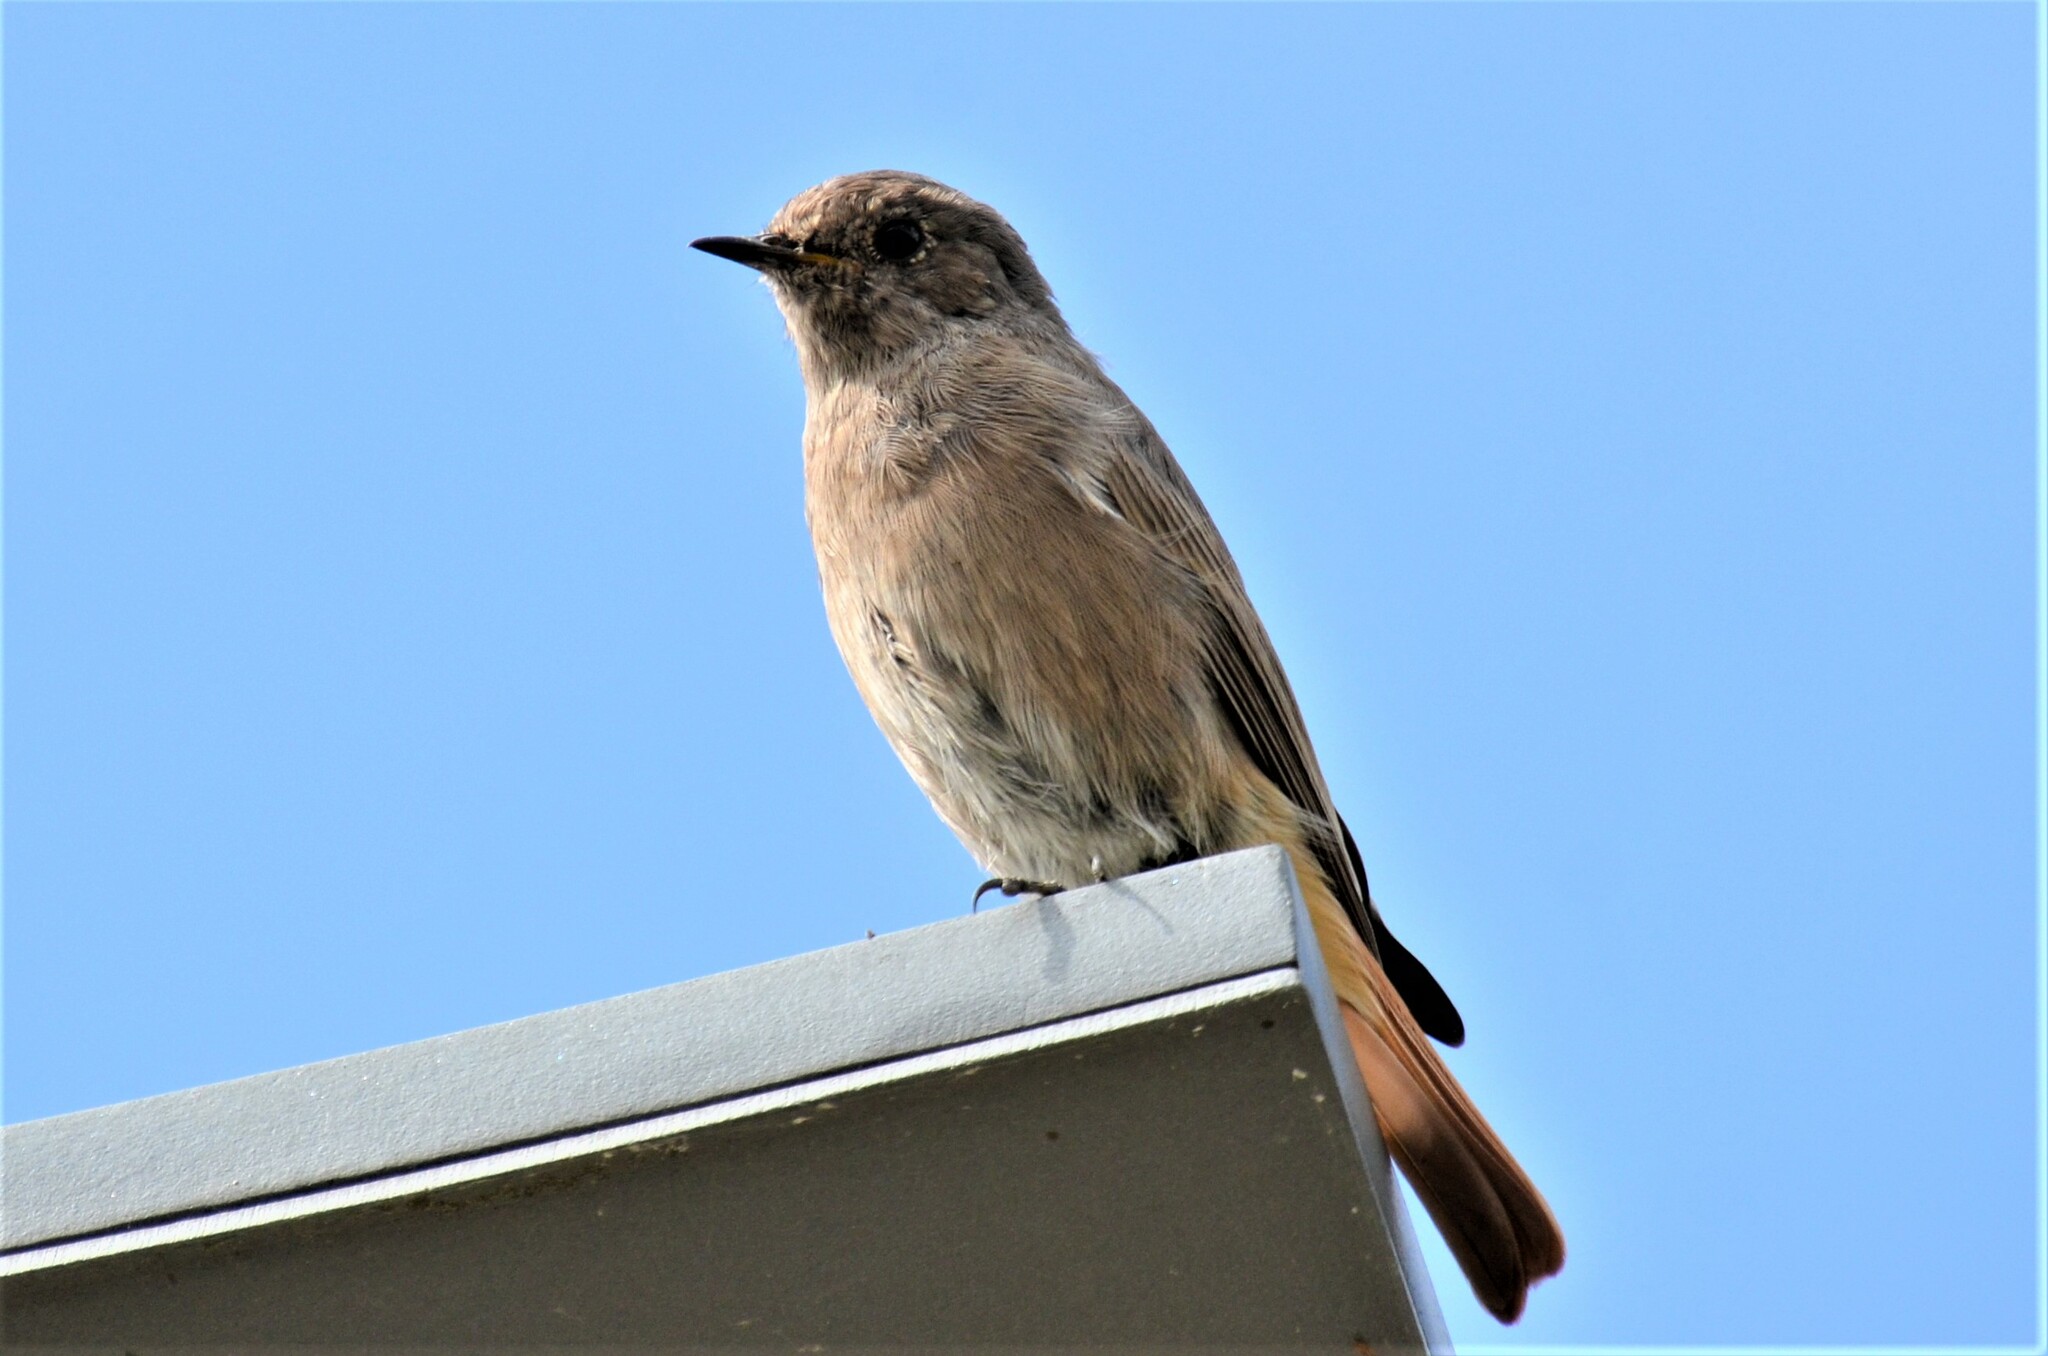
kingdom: Animalia
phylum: Chordata
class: Aves
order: Passeriformes
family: Muscicapidae
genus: Phoenicurus
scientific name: Phoenicurus ochruros
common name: Black redstart
